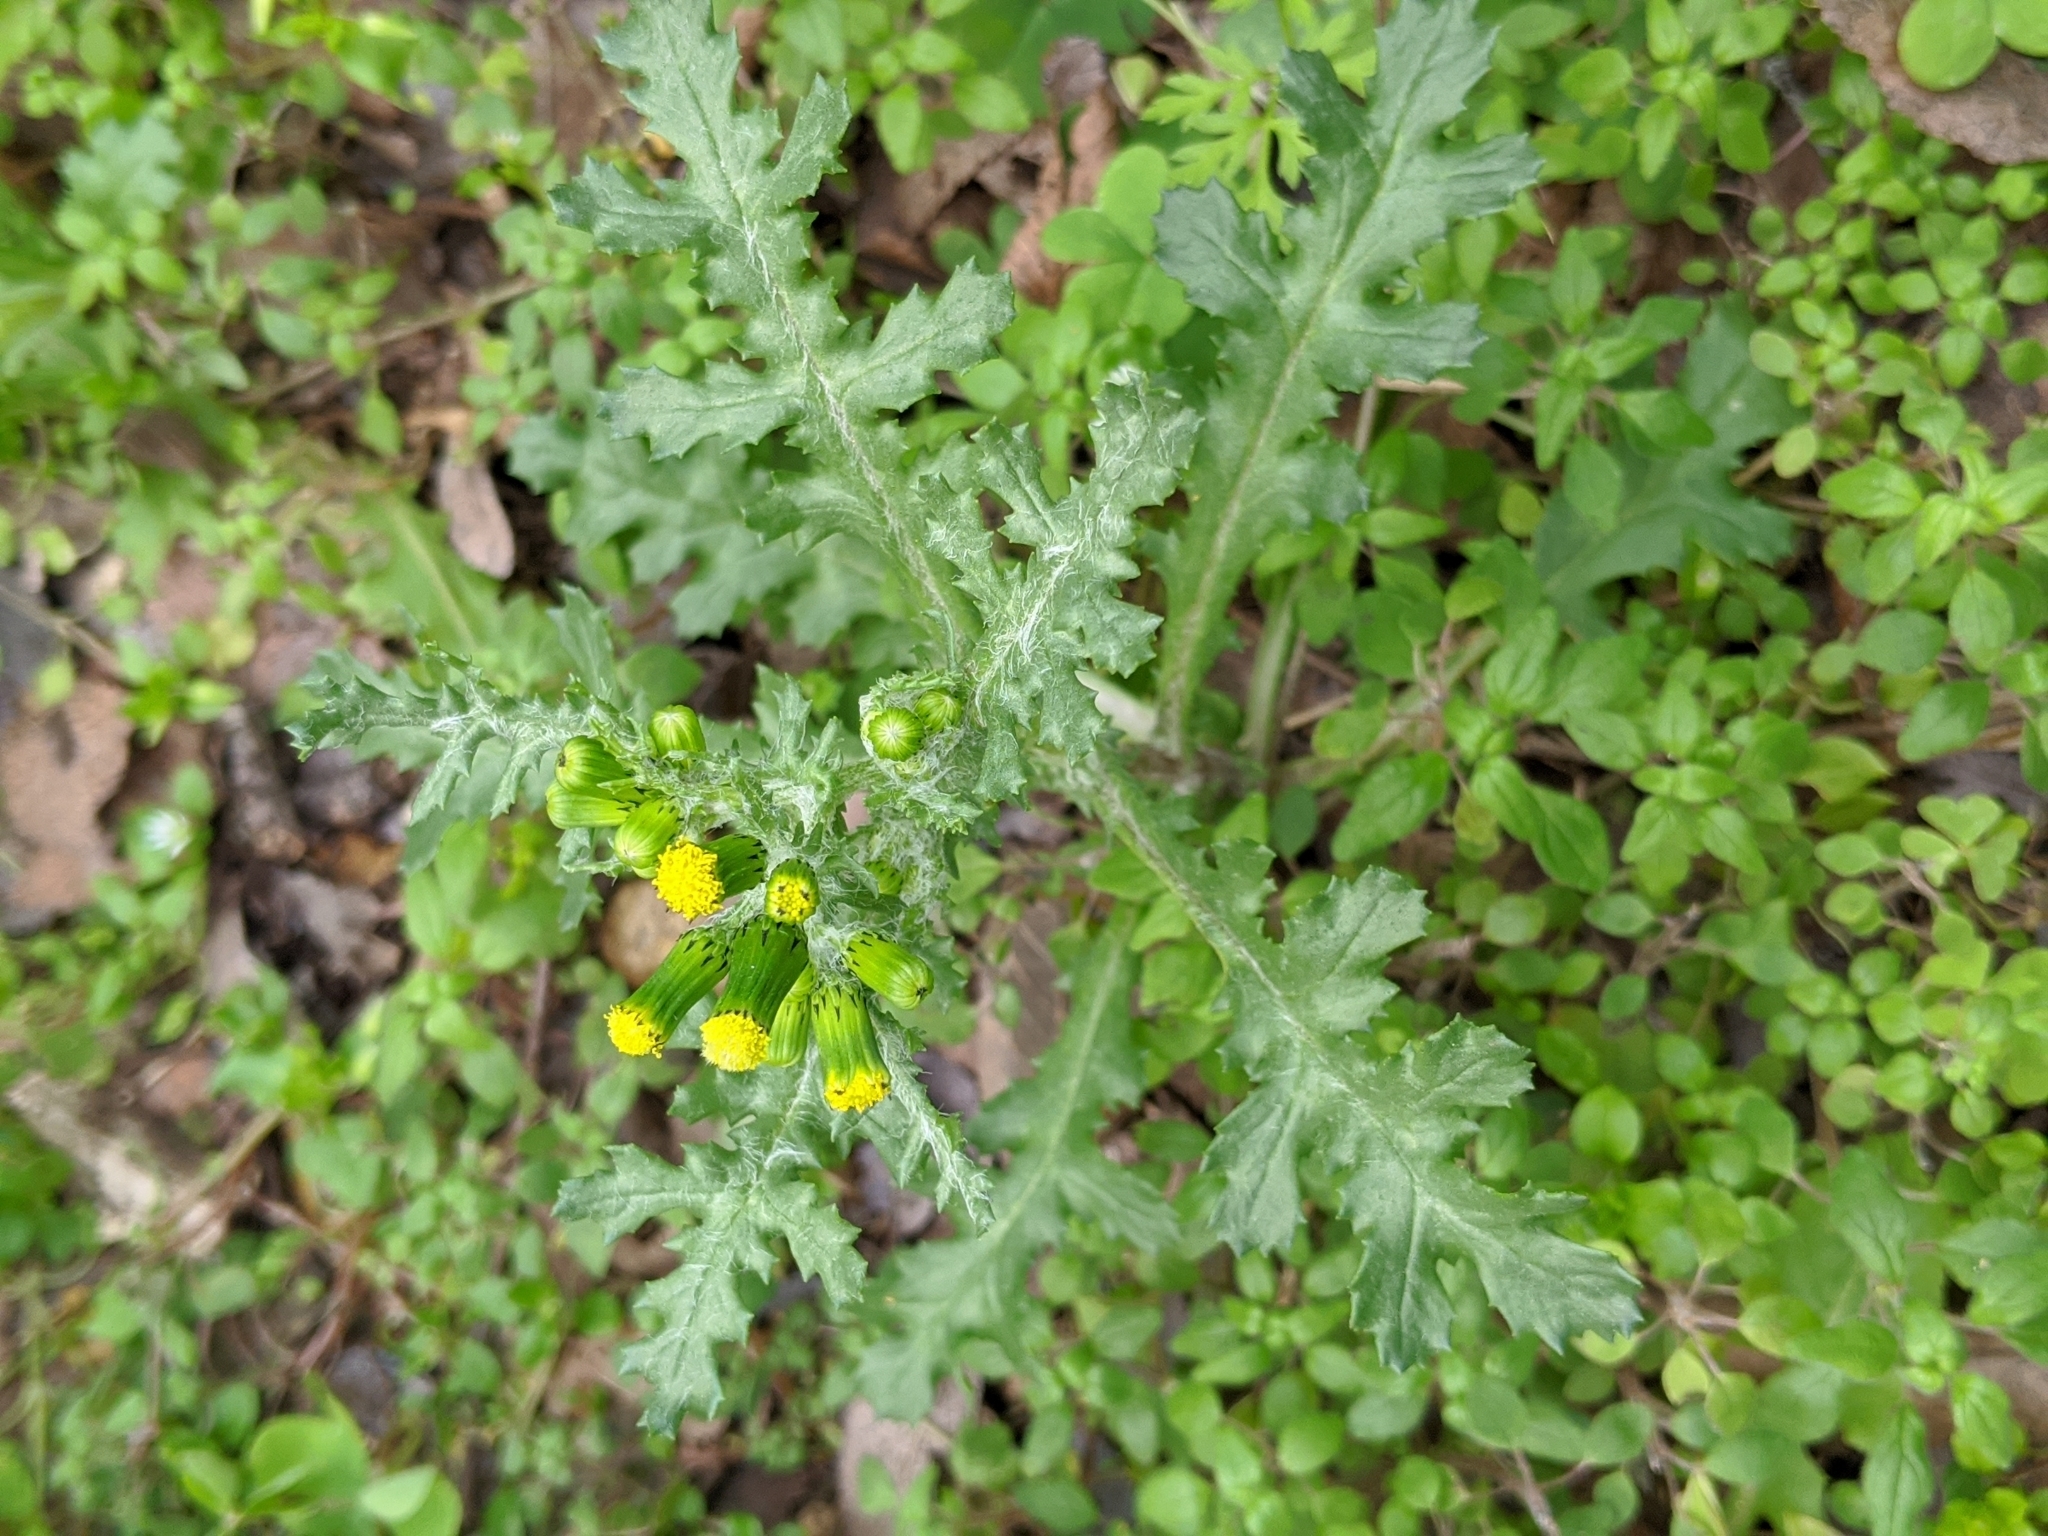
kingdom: Plantae
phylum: Tracheophyta
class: Magnoliopsida
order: Asterales
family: Asteraceae
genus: Senecio
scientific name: Senecio vulgaris
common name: Old-man-in-the-spring
